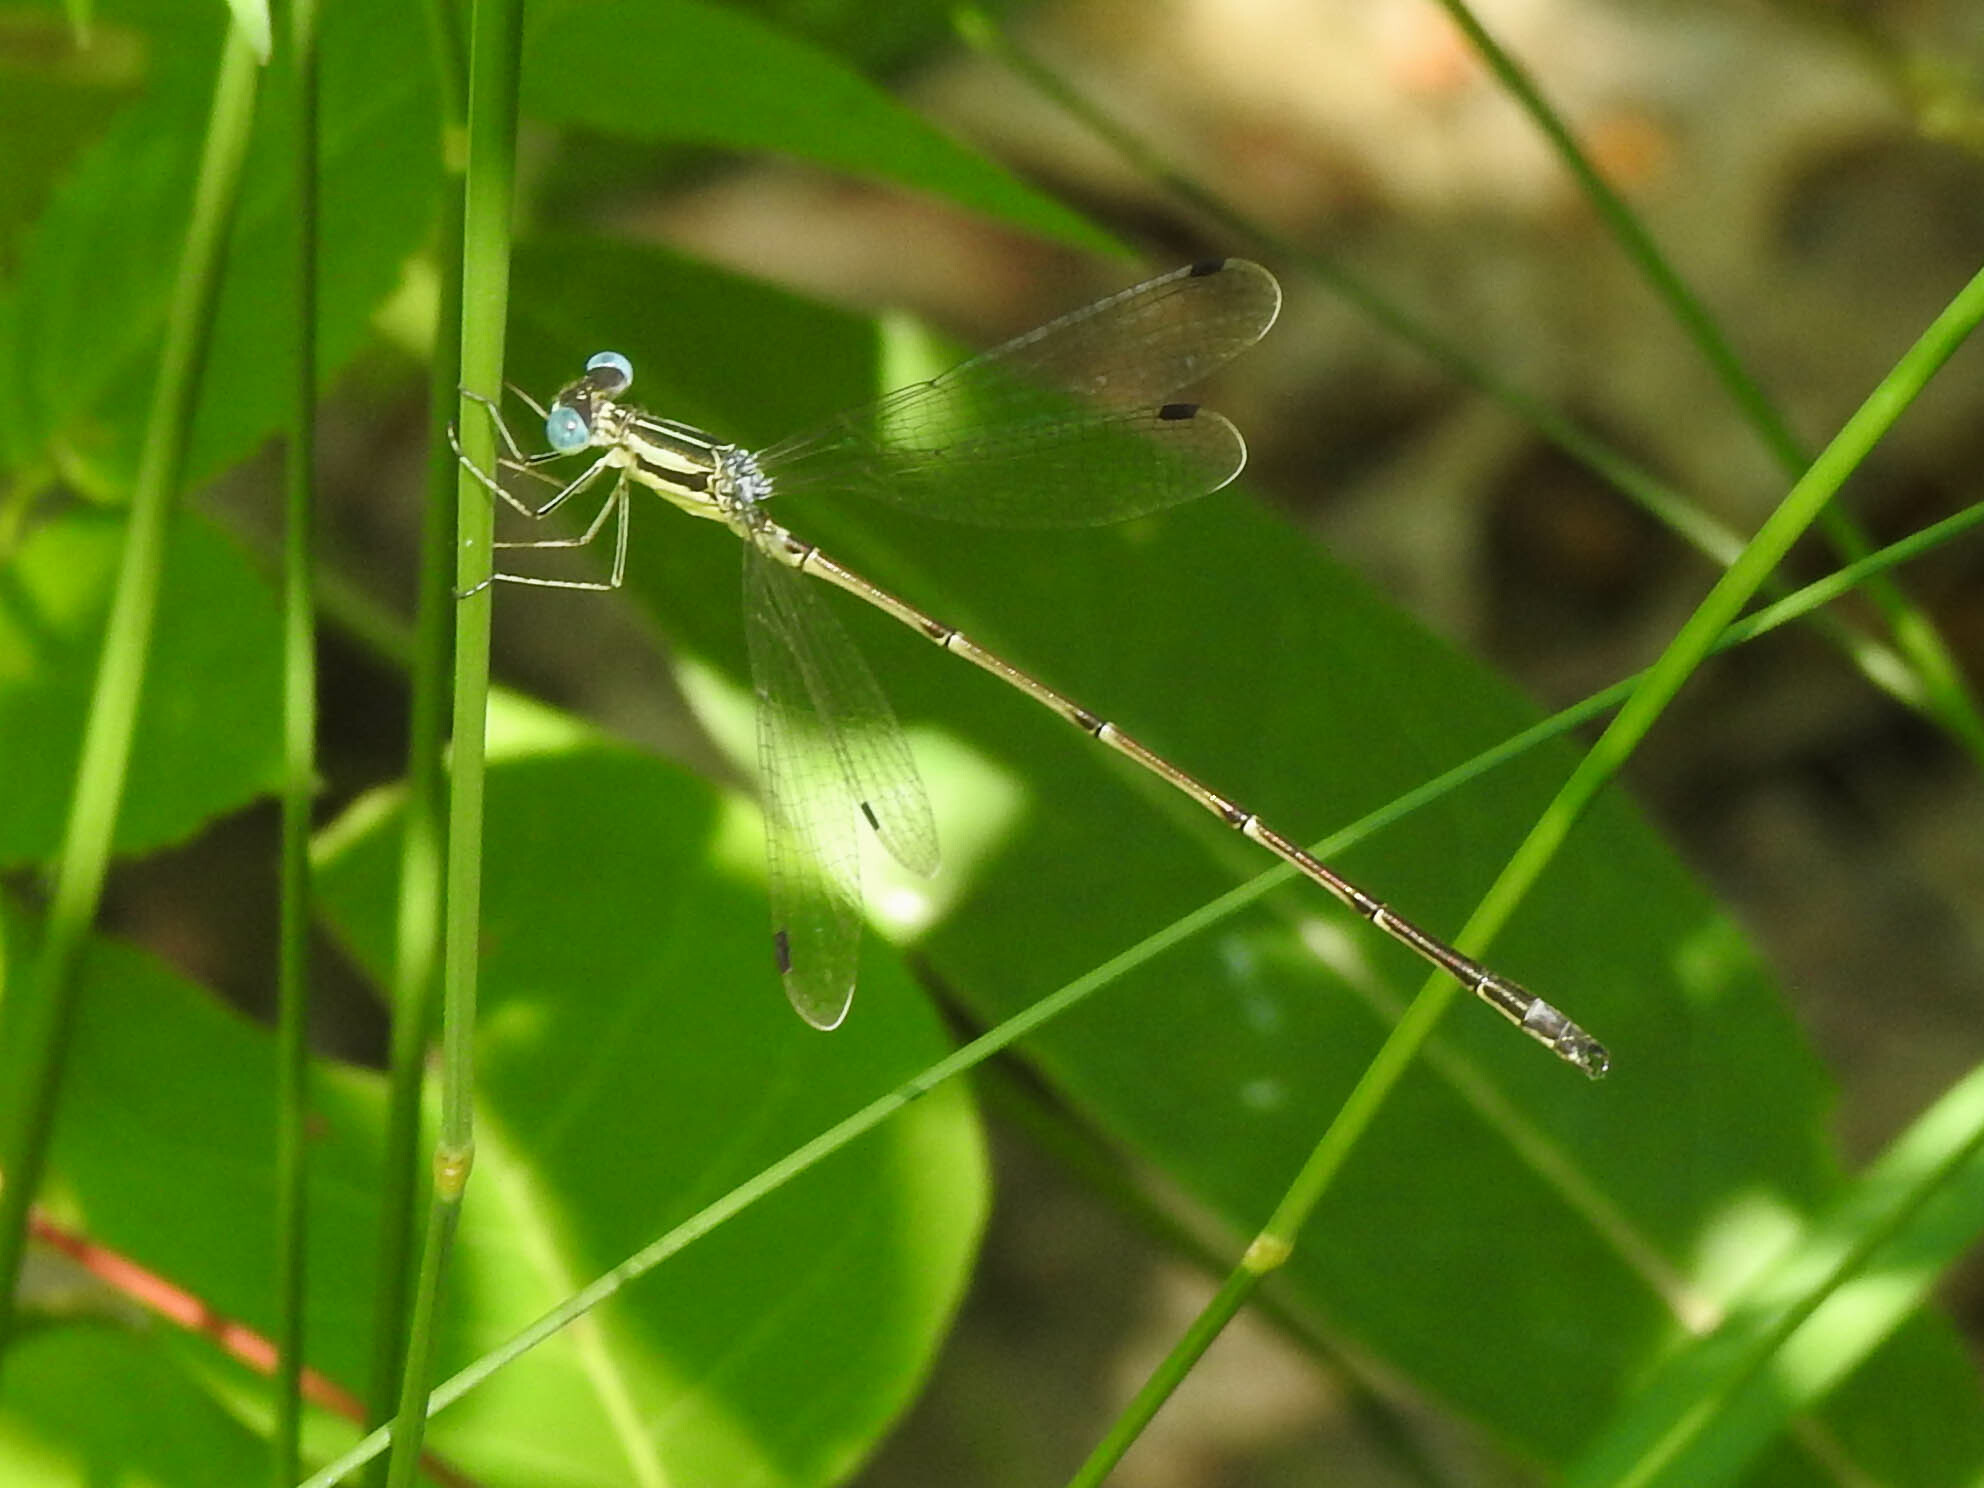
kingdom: Animalia
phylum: Arthropoda
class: Insecta
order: Odonata
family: Lestidae
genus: Lestes
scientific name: Lestes rectangularis
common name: Slender spreadwing
